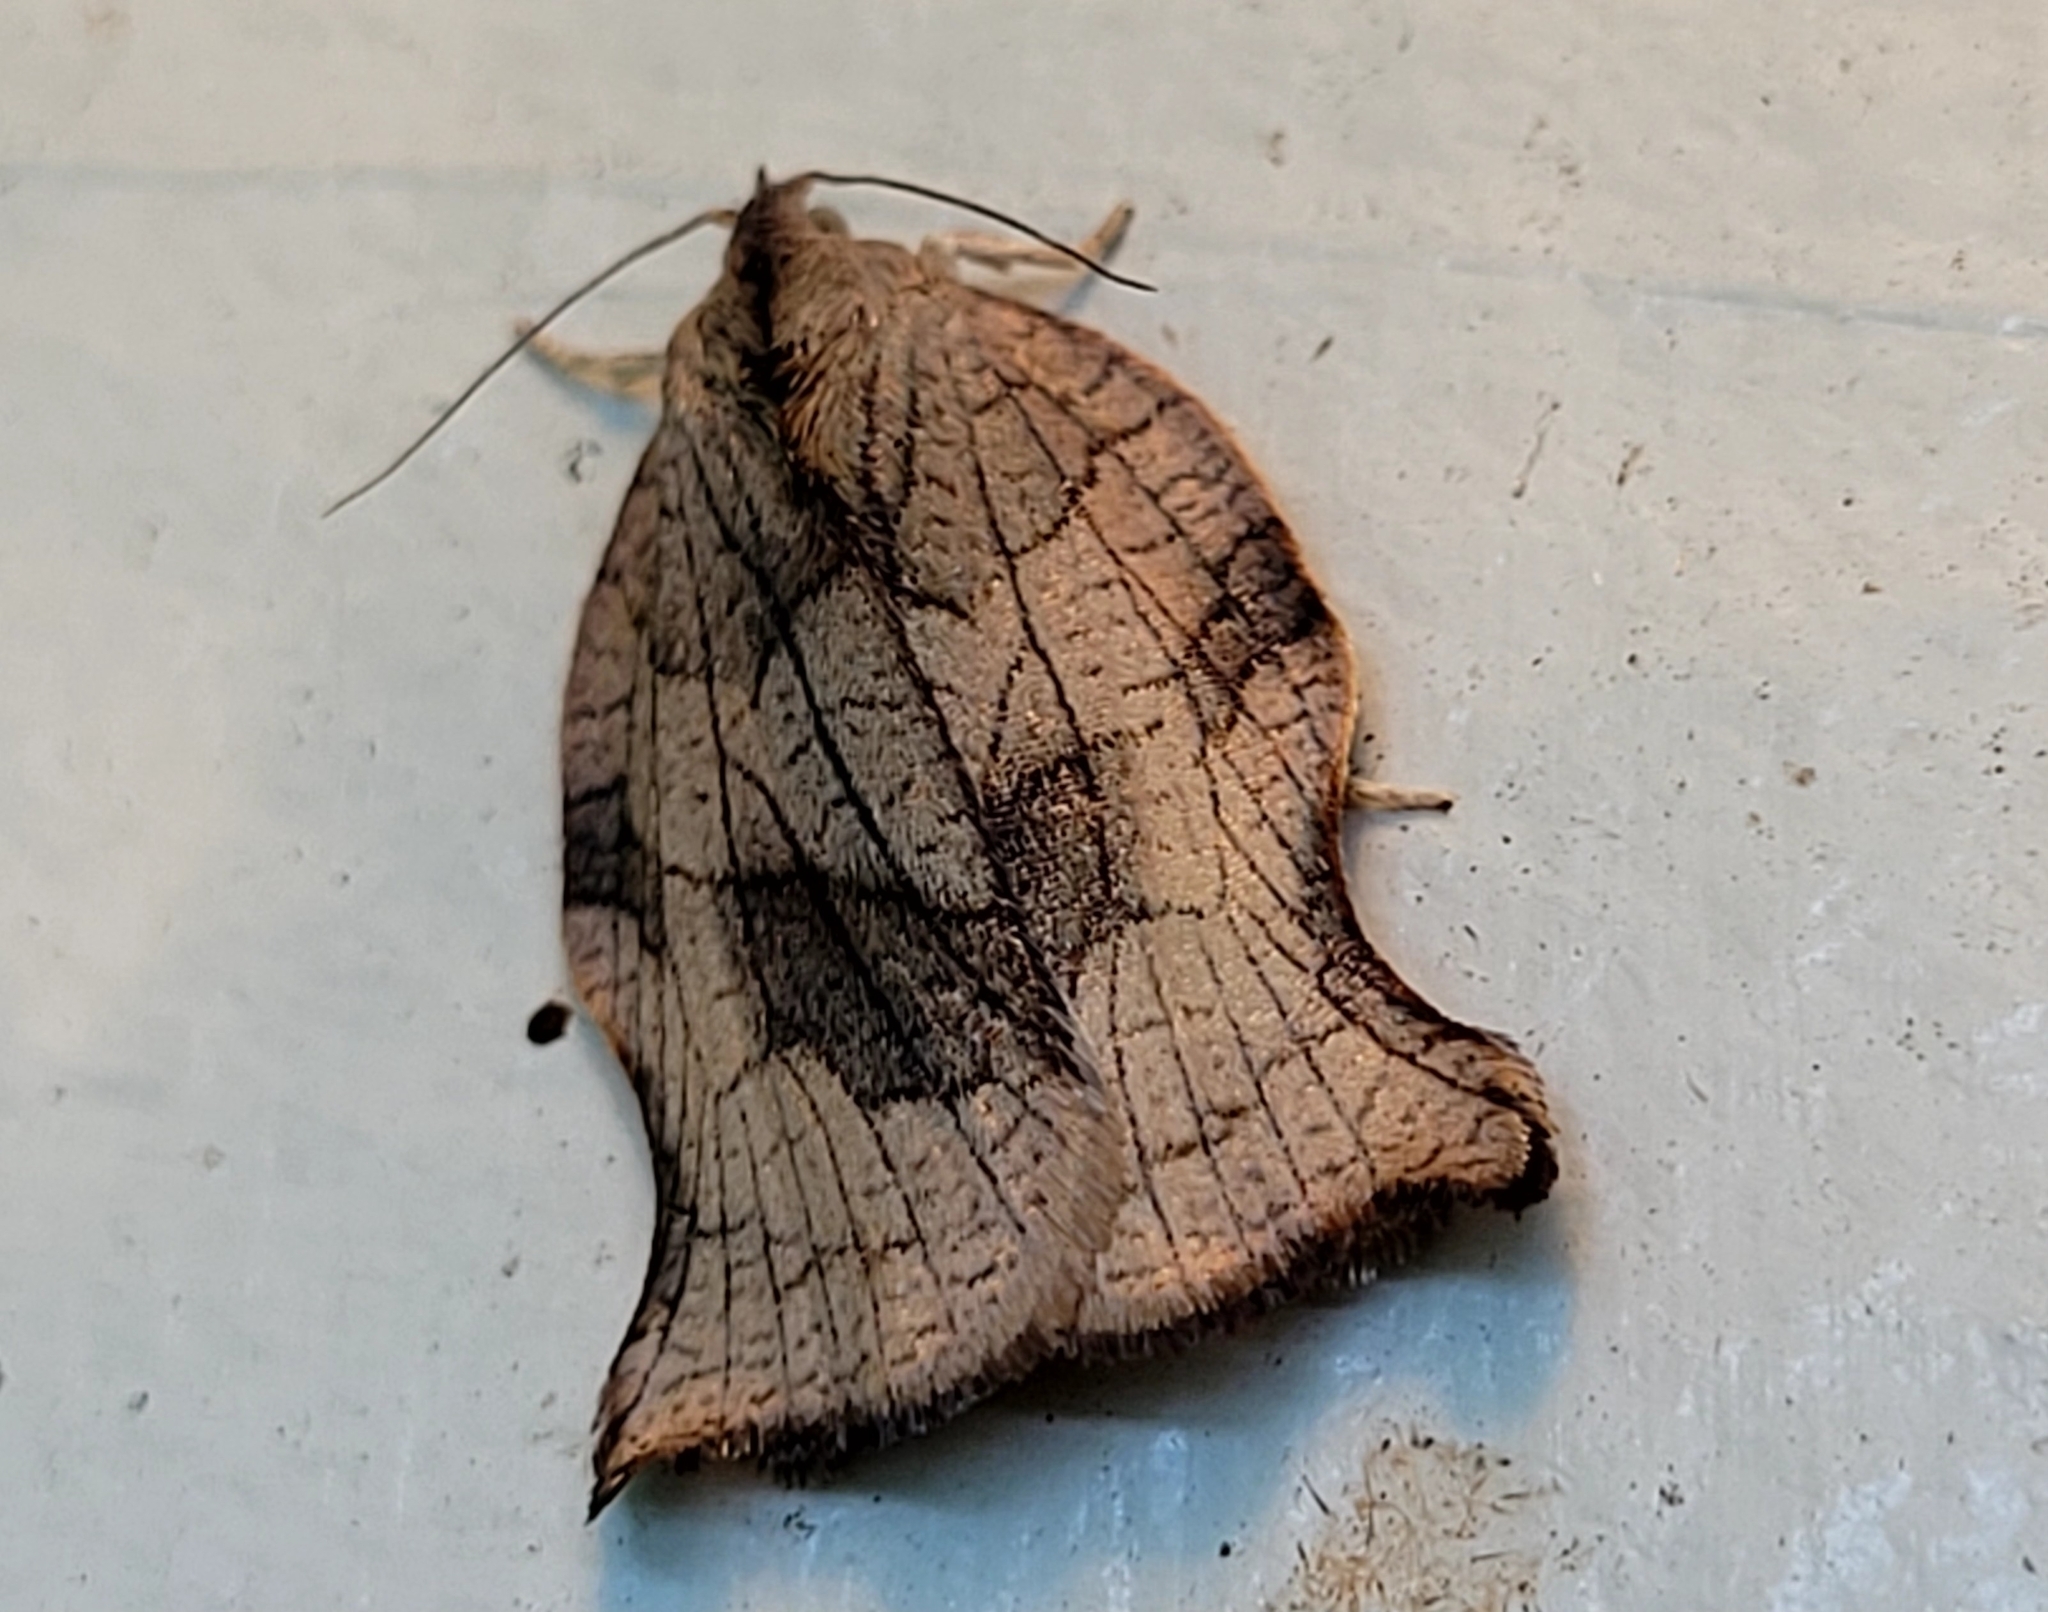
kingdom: Animalia
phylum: Arthropoda
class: Insecta
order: Lepidoptera
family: Tortricidae
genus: Archips
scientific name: Archips purpurana
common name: Omnivorous leafroller
